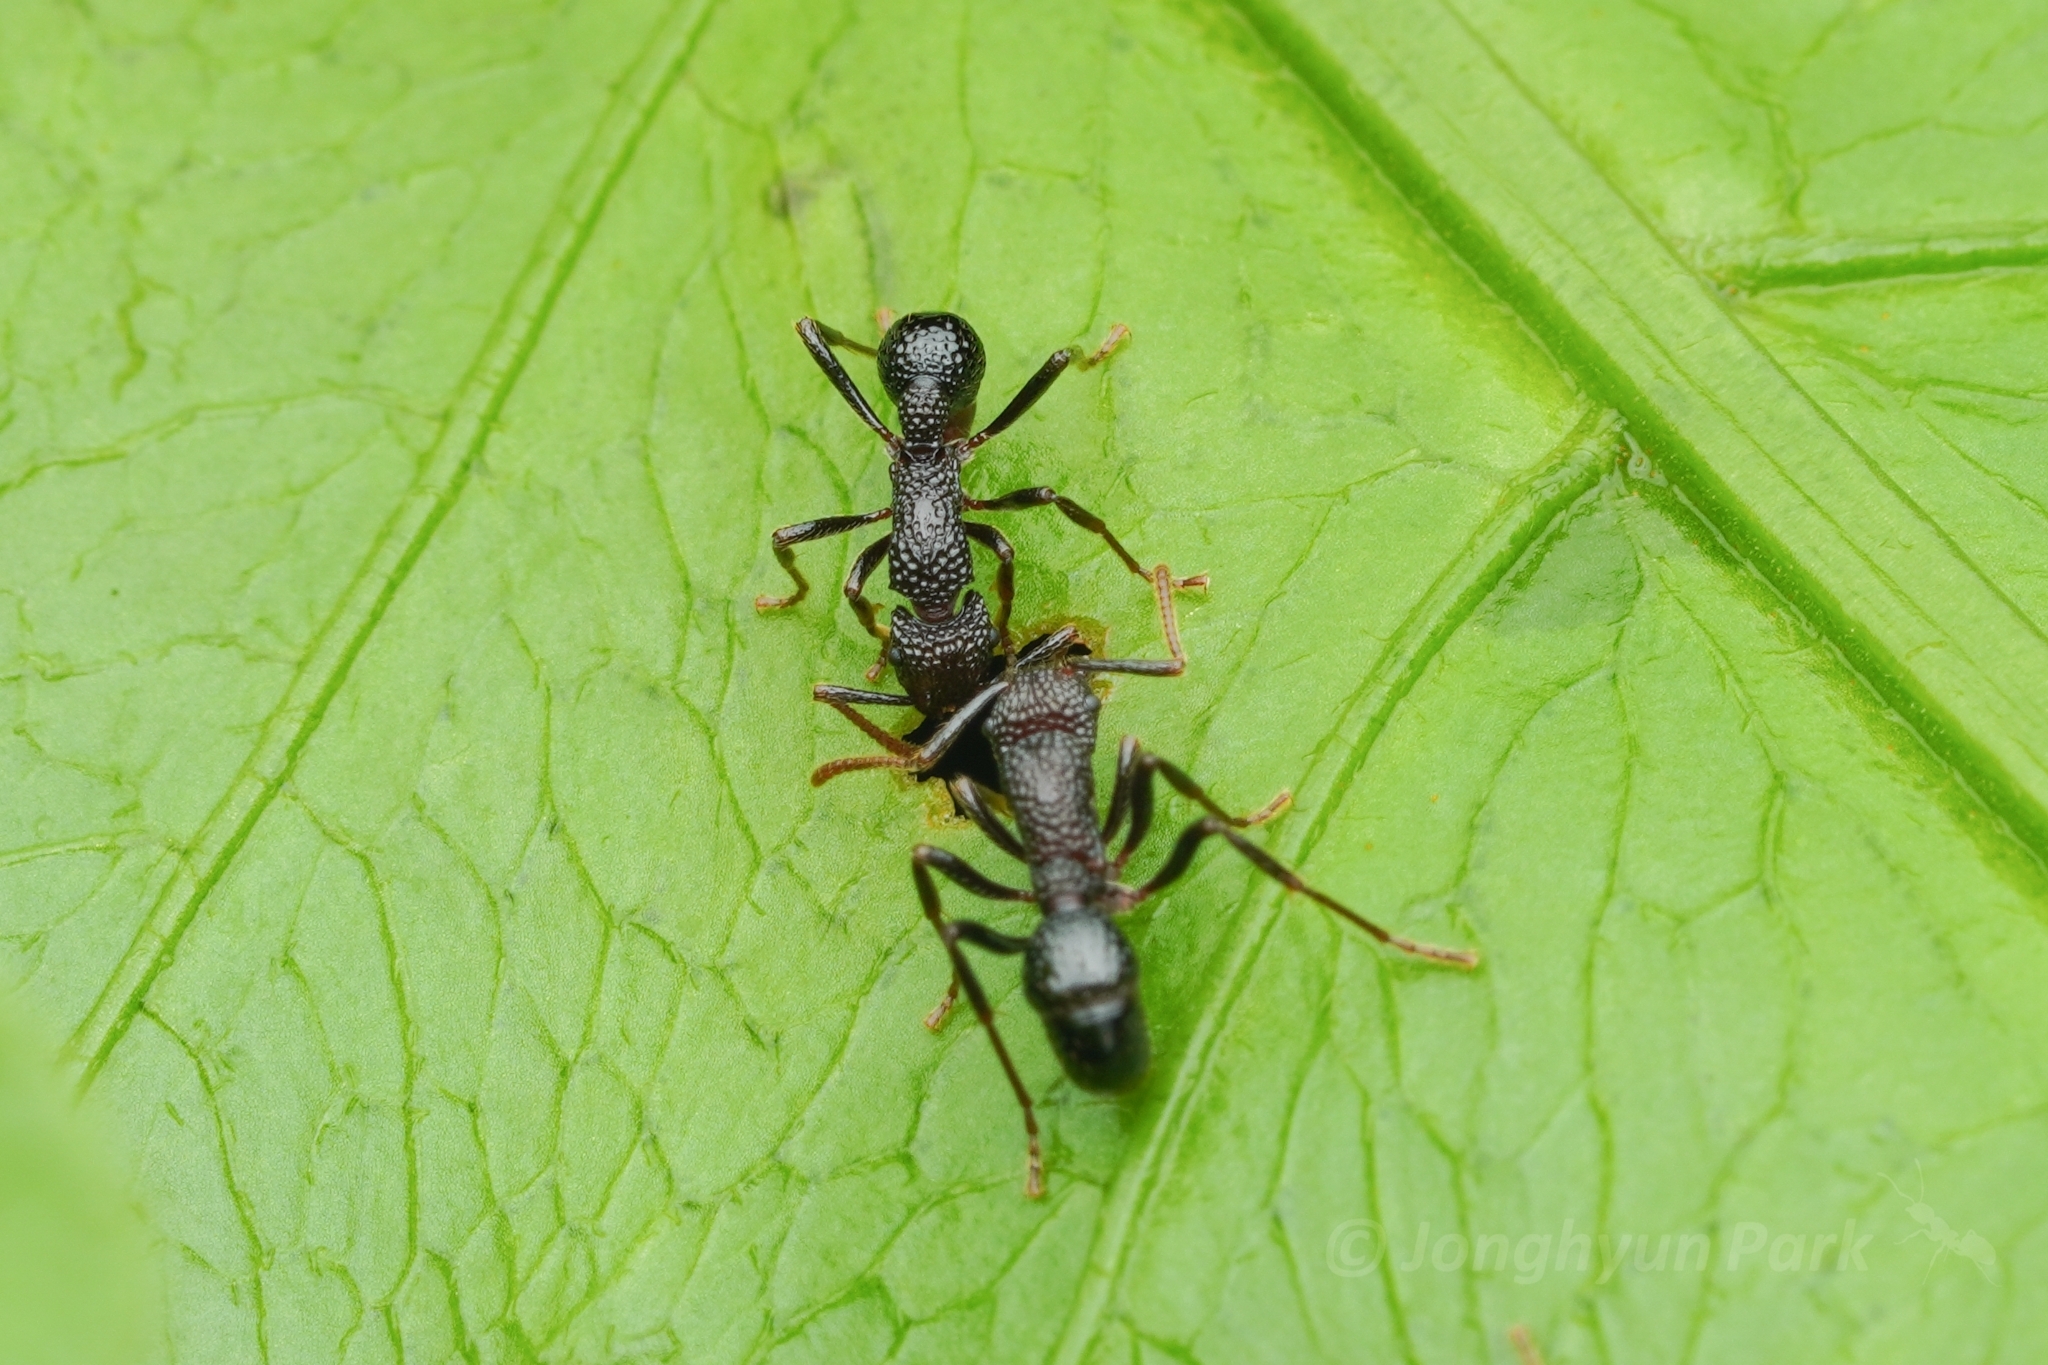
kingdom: Animalia
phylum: Arthropoda
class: Insecta
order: Hymenoptera
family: Formicidae
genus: Stictoponera
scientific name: Stictoponera
